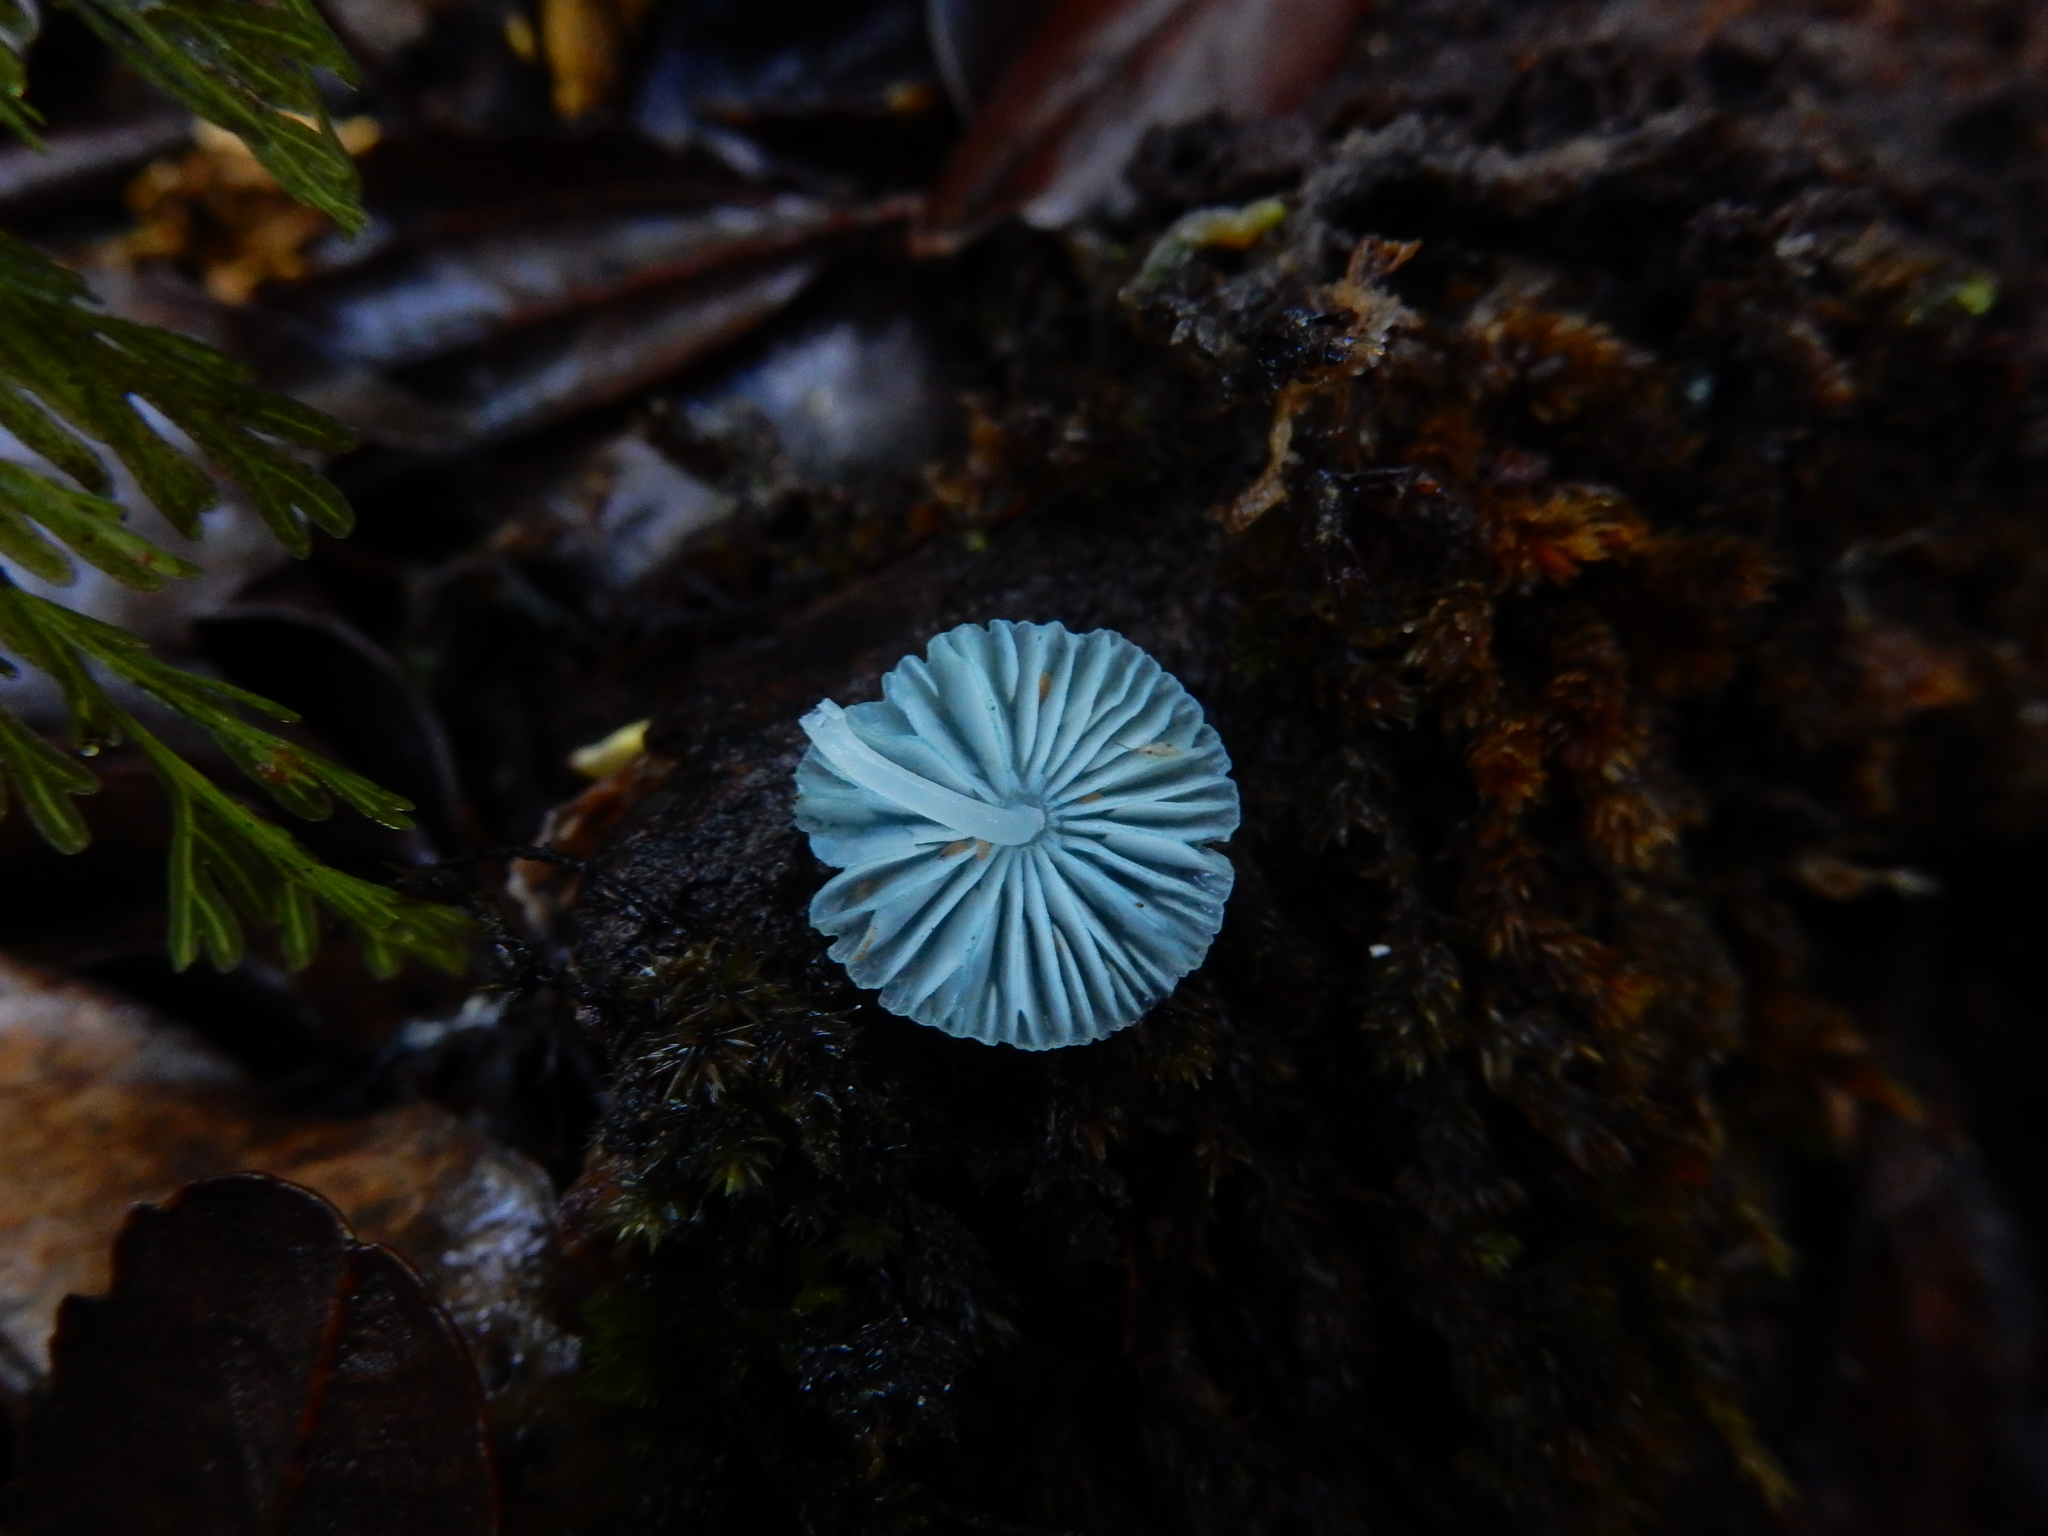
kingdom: Fungi
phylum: Basidiomycota
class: Agaricomycetes
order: Agaricales
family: Mycenaceae
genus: Mycena
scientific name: Mycena interrupta
